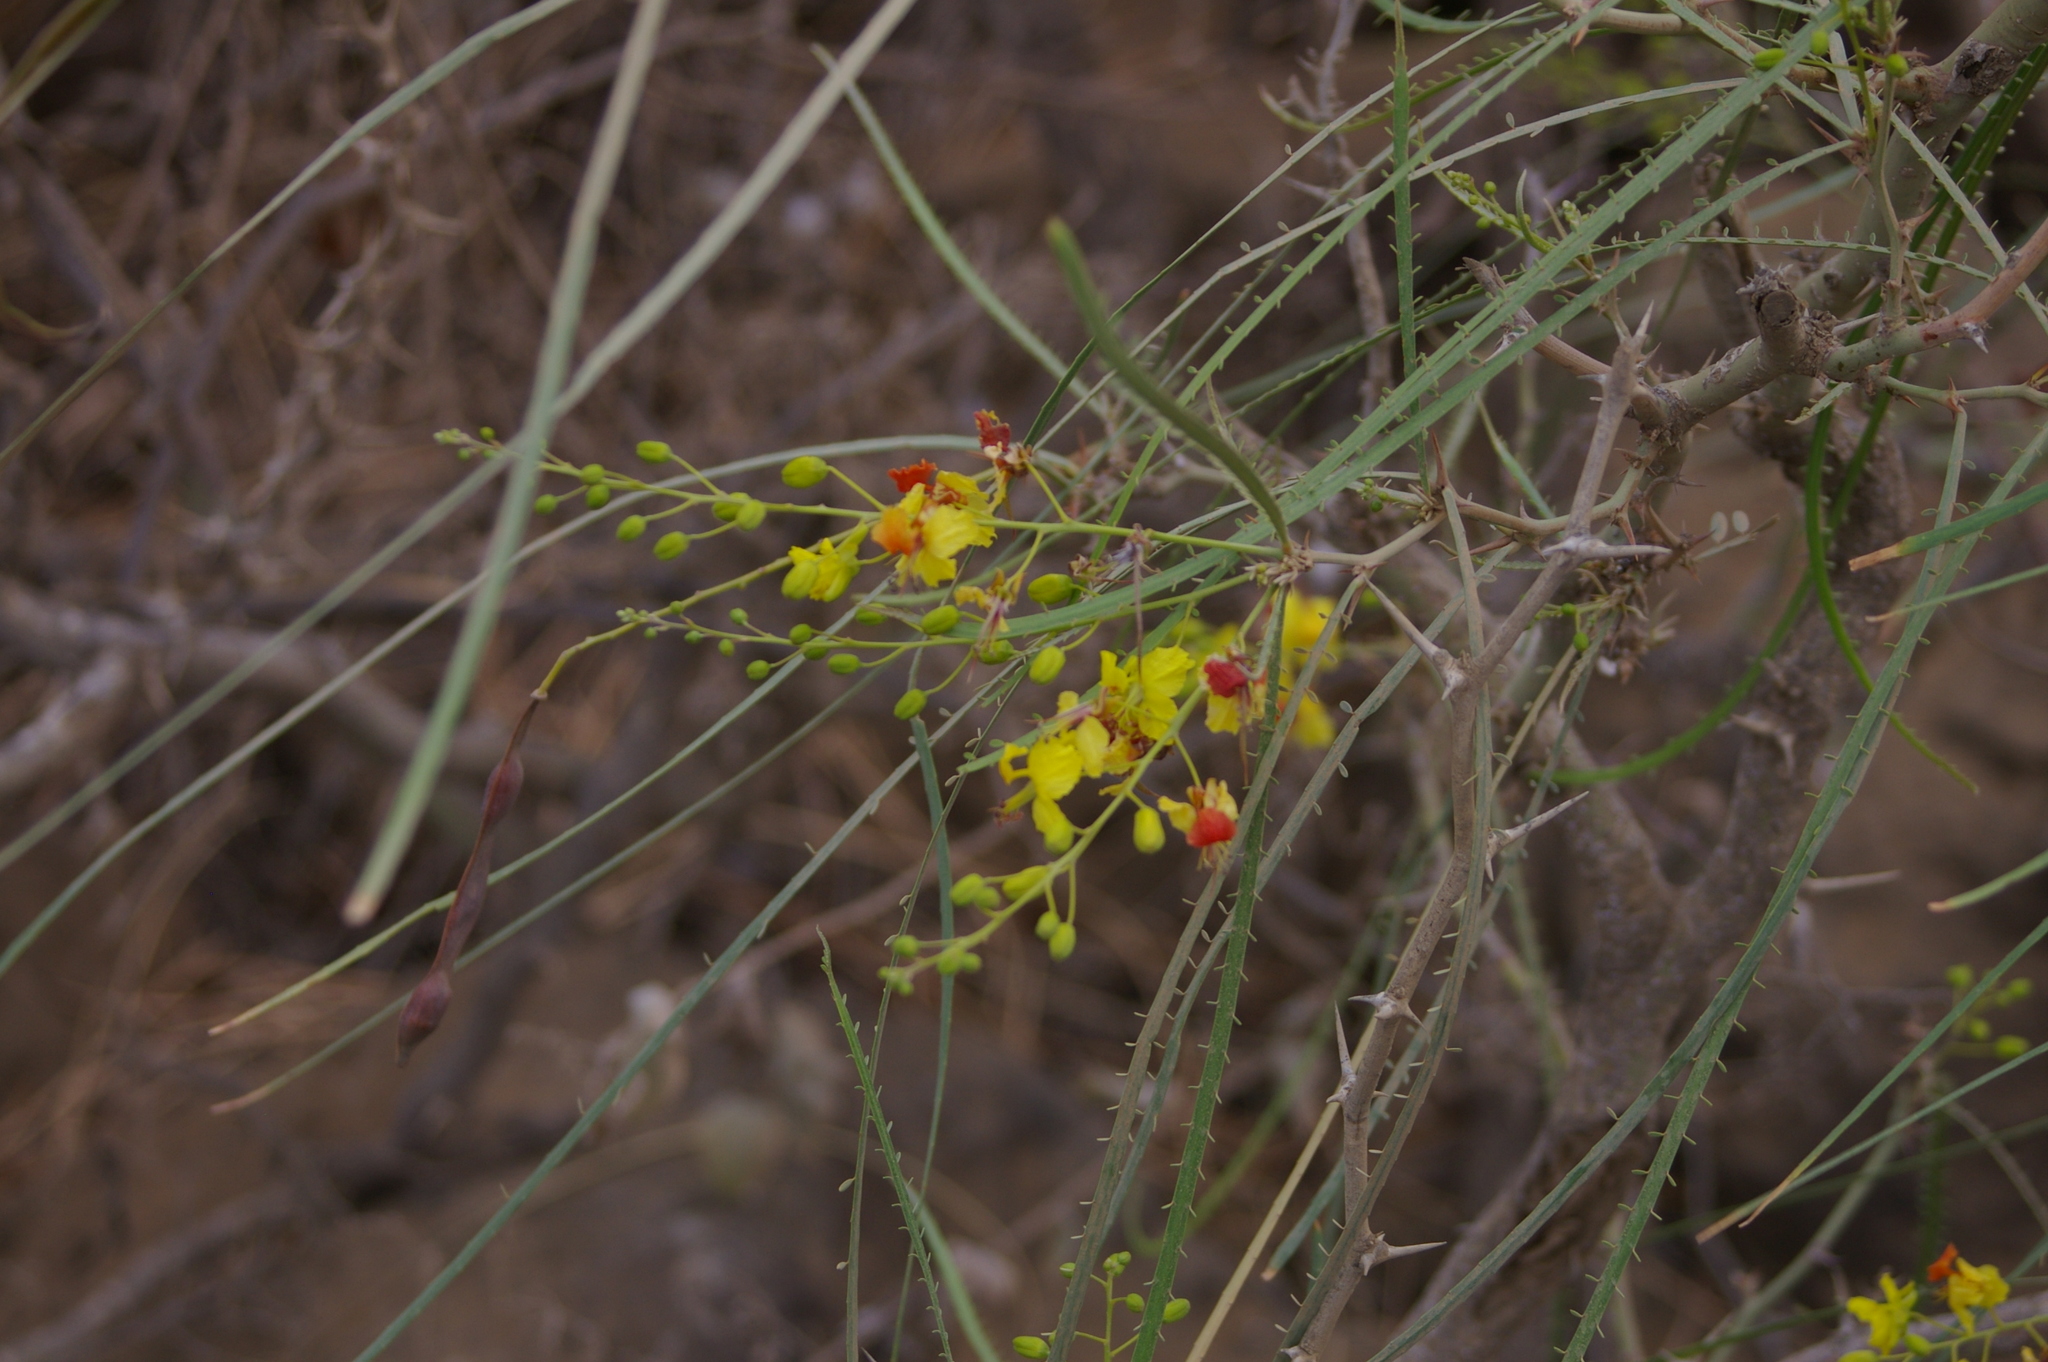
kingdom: Plantae
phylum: Tracheophyta
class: Magnoliopsida
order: Fabales
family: Fabaceae
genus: Parkinsonia
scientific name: Parkinsonia aculeata
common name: Jerusalem thorn
